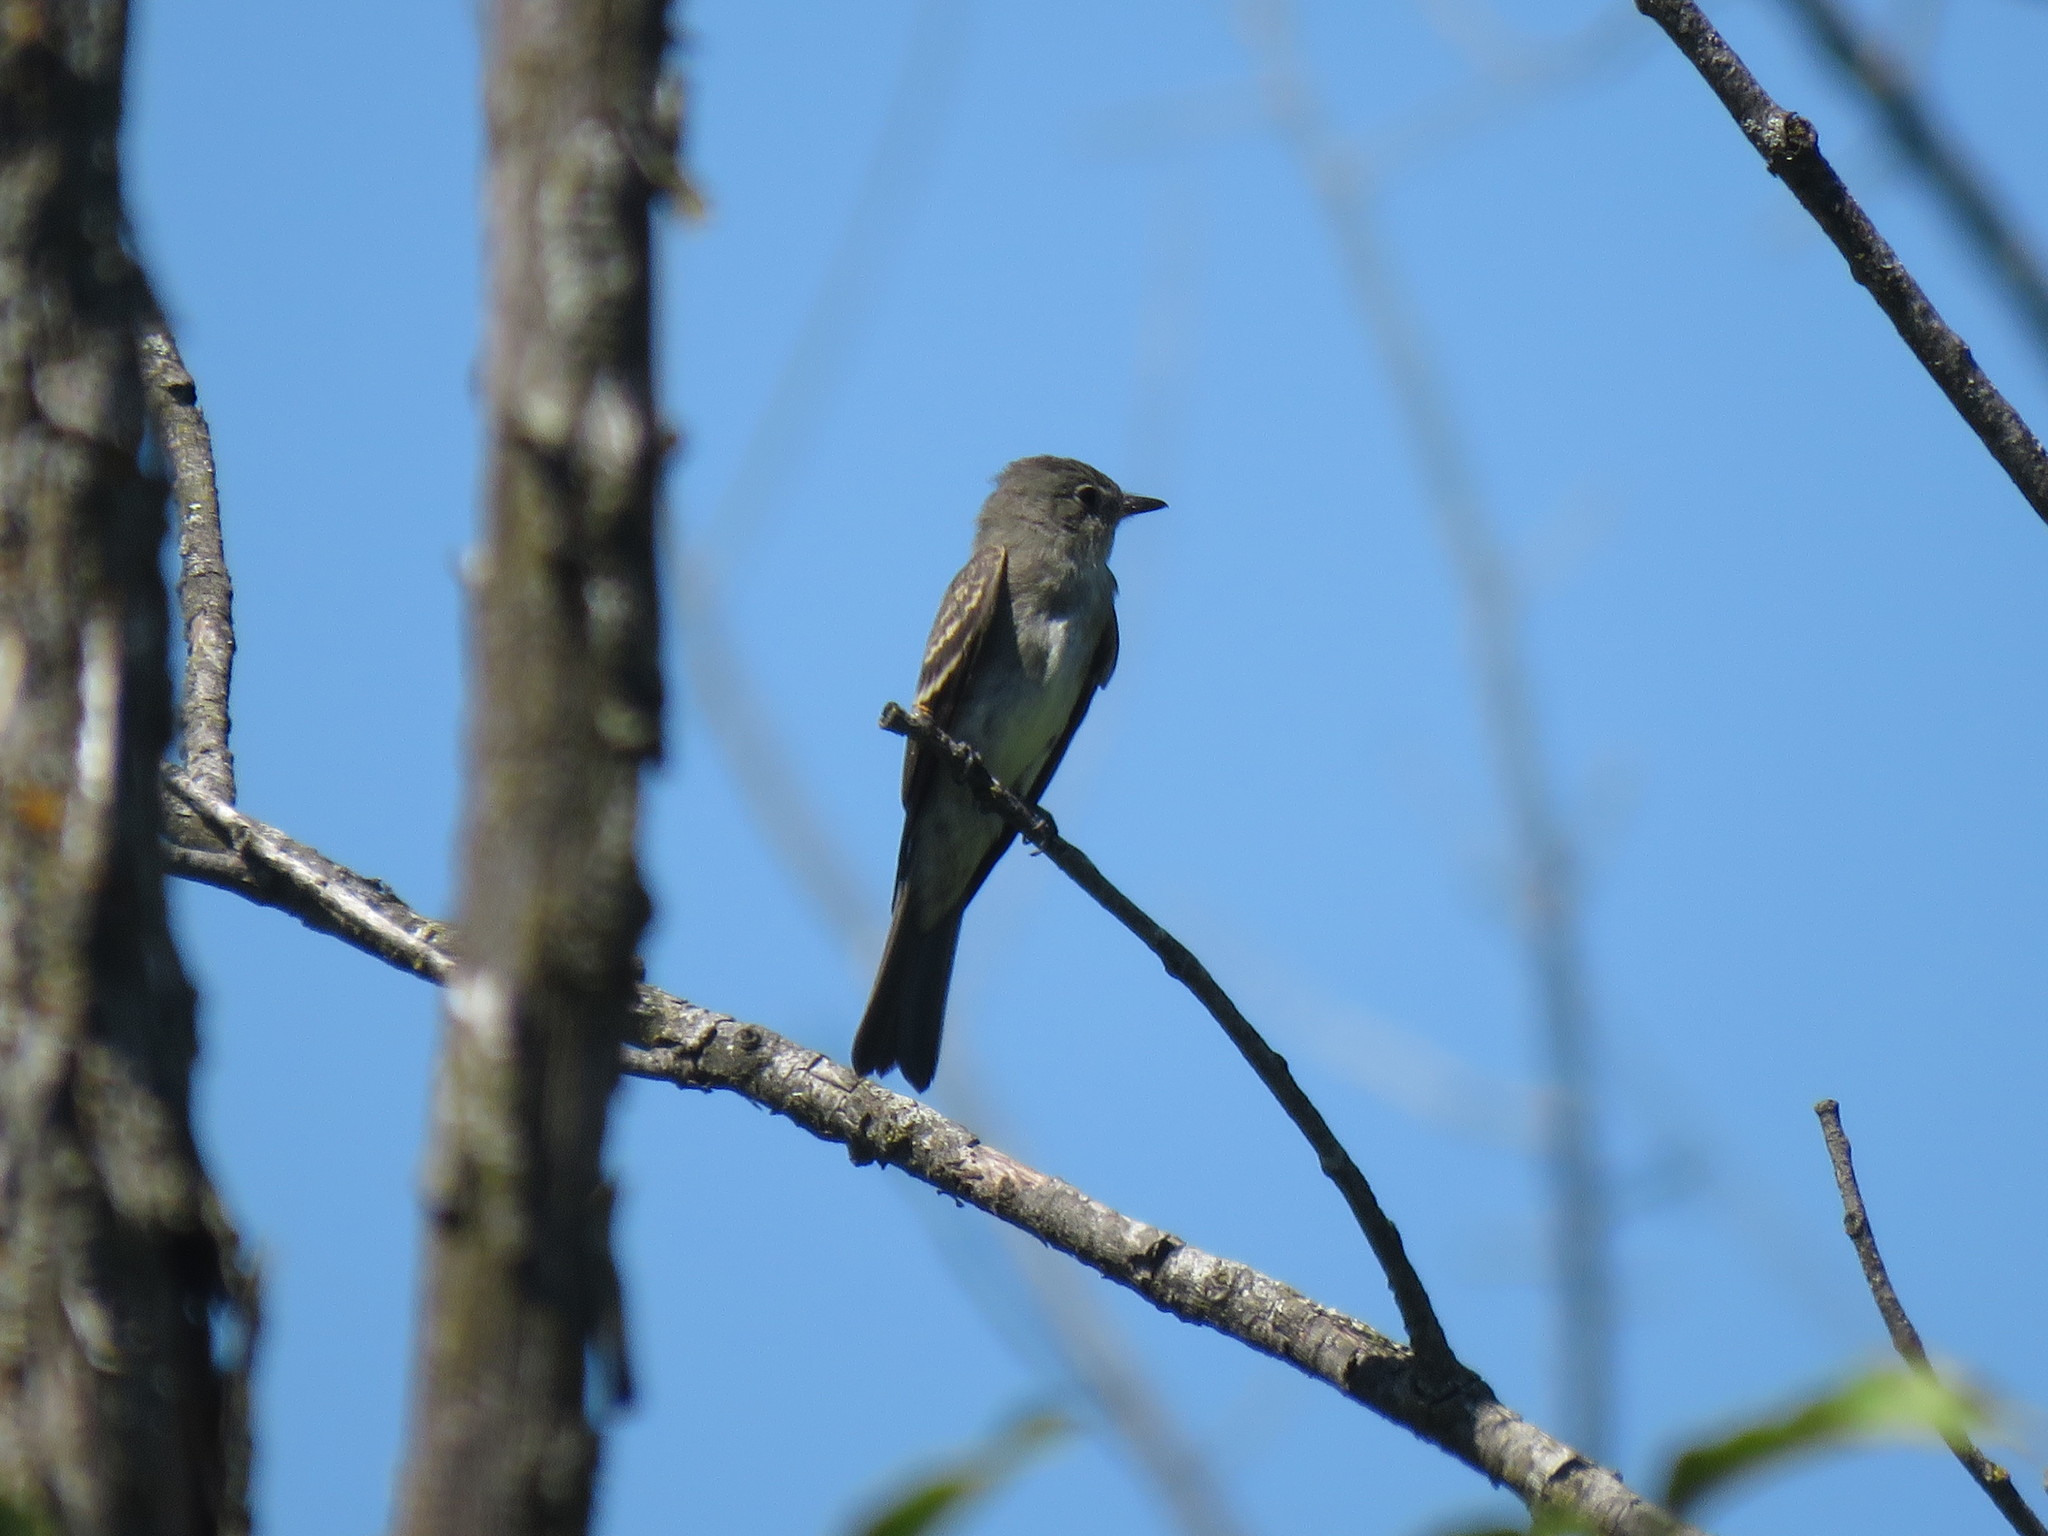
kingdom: Animalia
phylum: Chordata
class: Aves
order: Passeriformes
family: Tyrannidae
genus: Contopus
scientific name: Contopus virens
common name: Eastern wood-pewee
